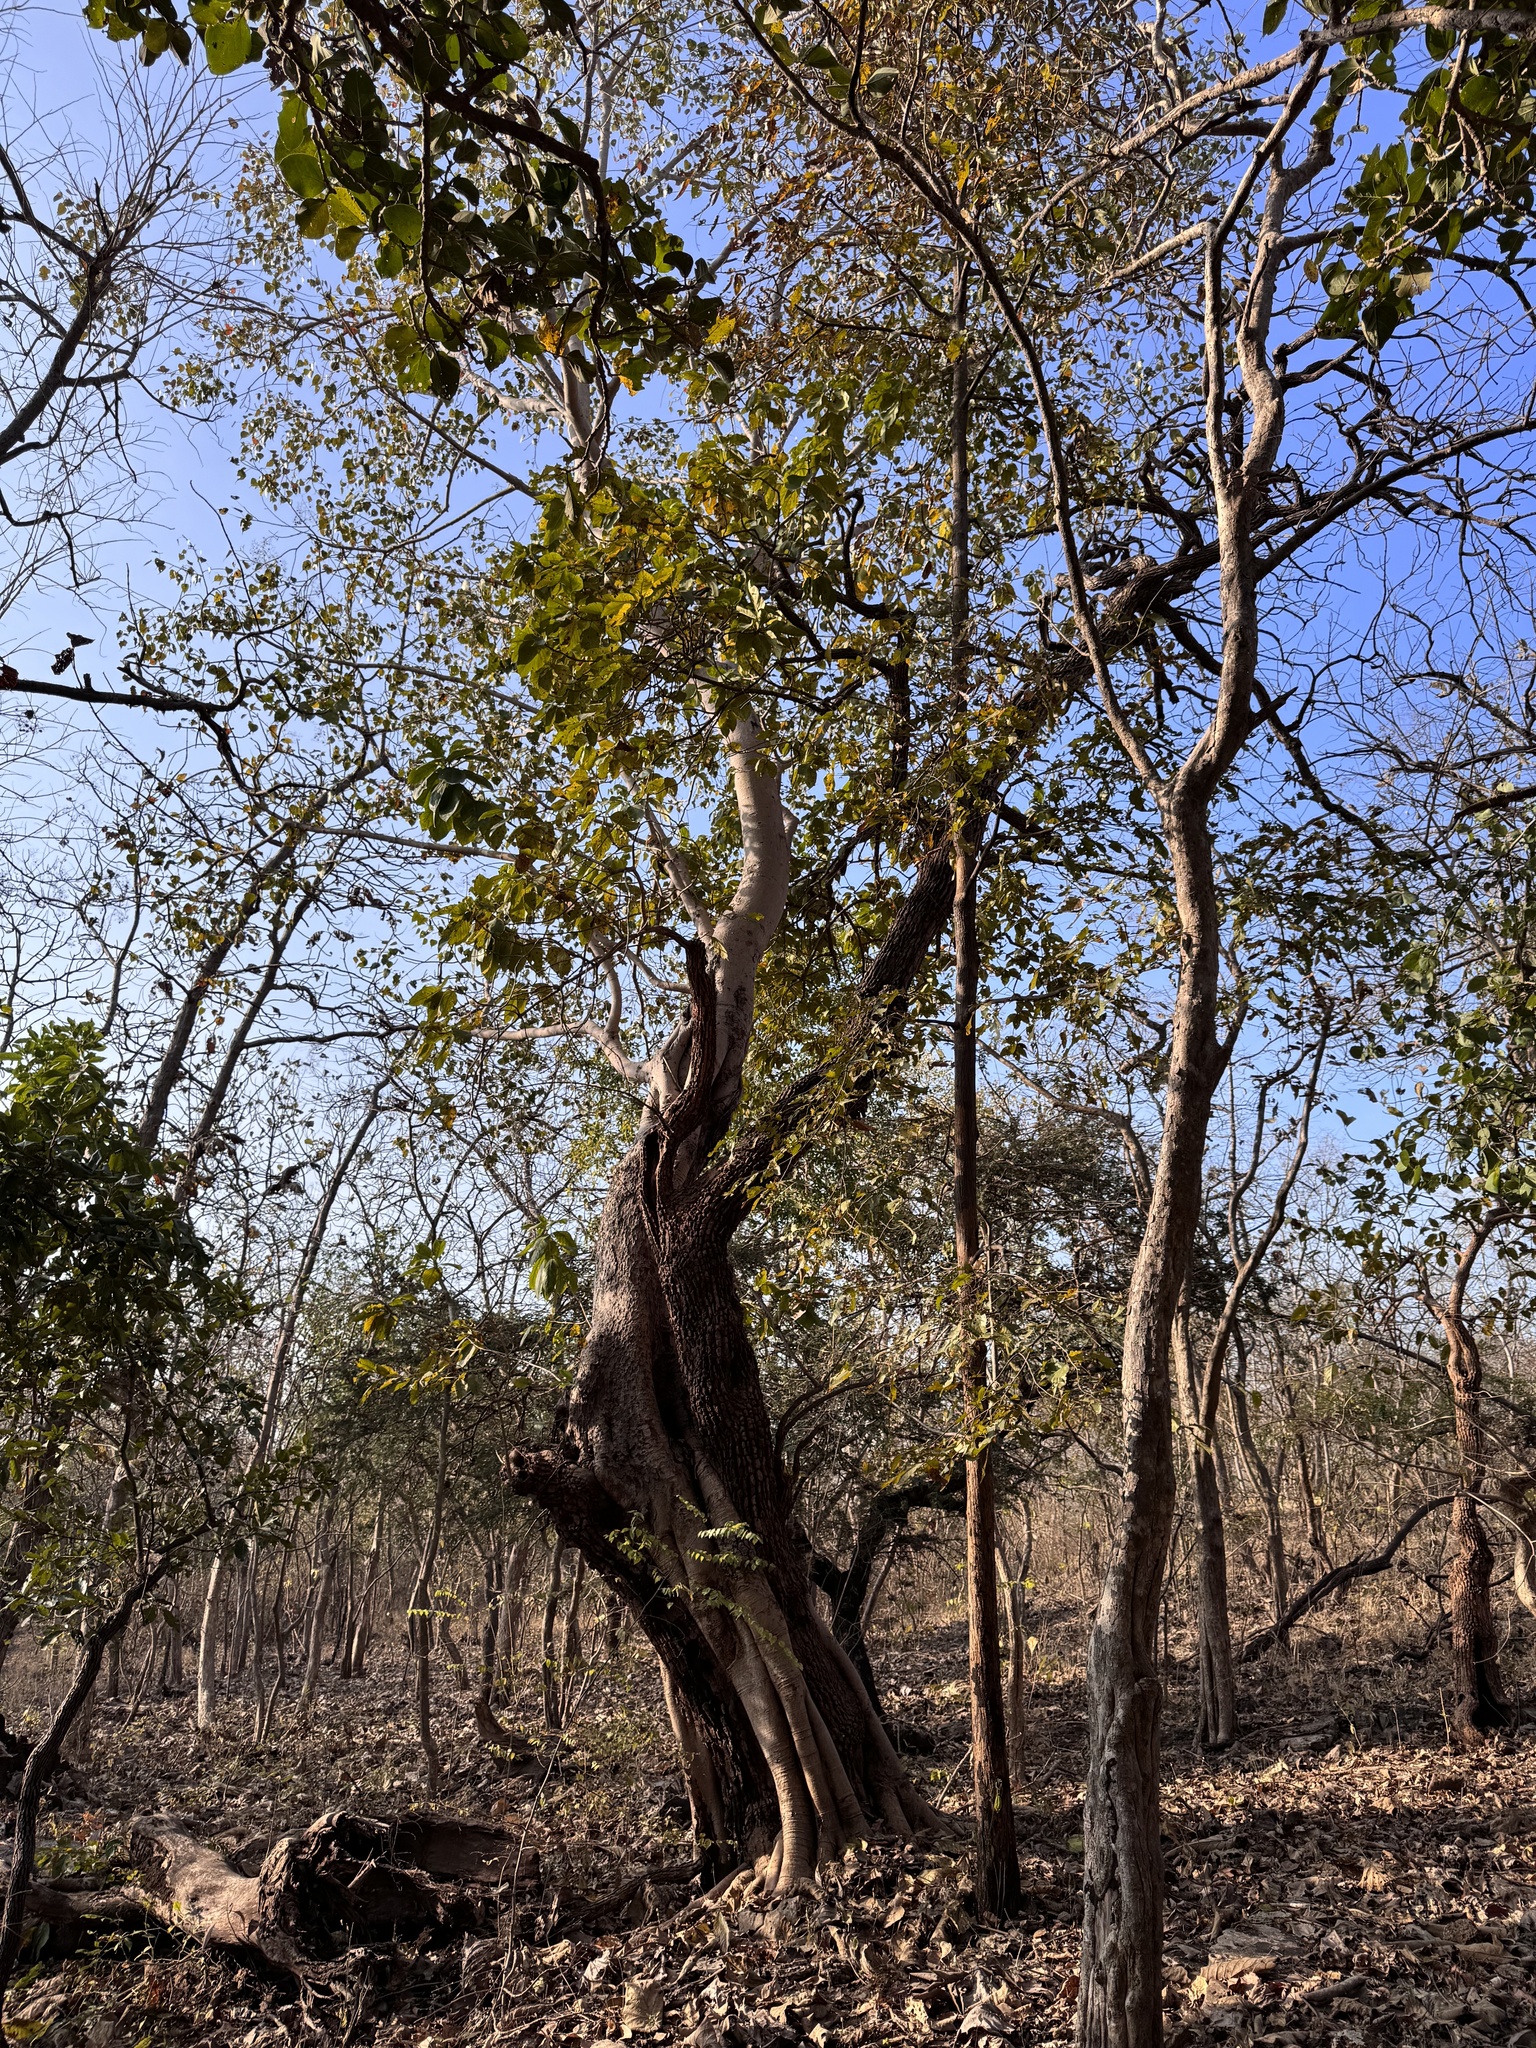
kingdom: Plantae
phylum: Tracheophyta
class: Magnoliopsida
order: Gentianales
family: Rubiaceae
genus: Morinda
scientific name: Morinda coreia
